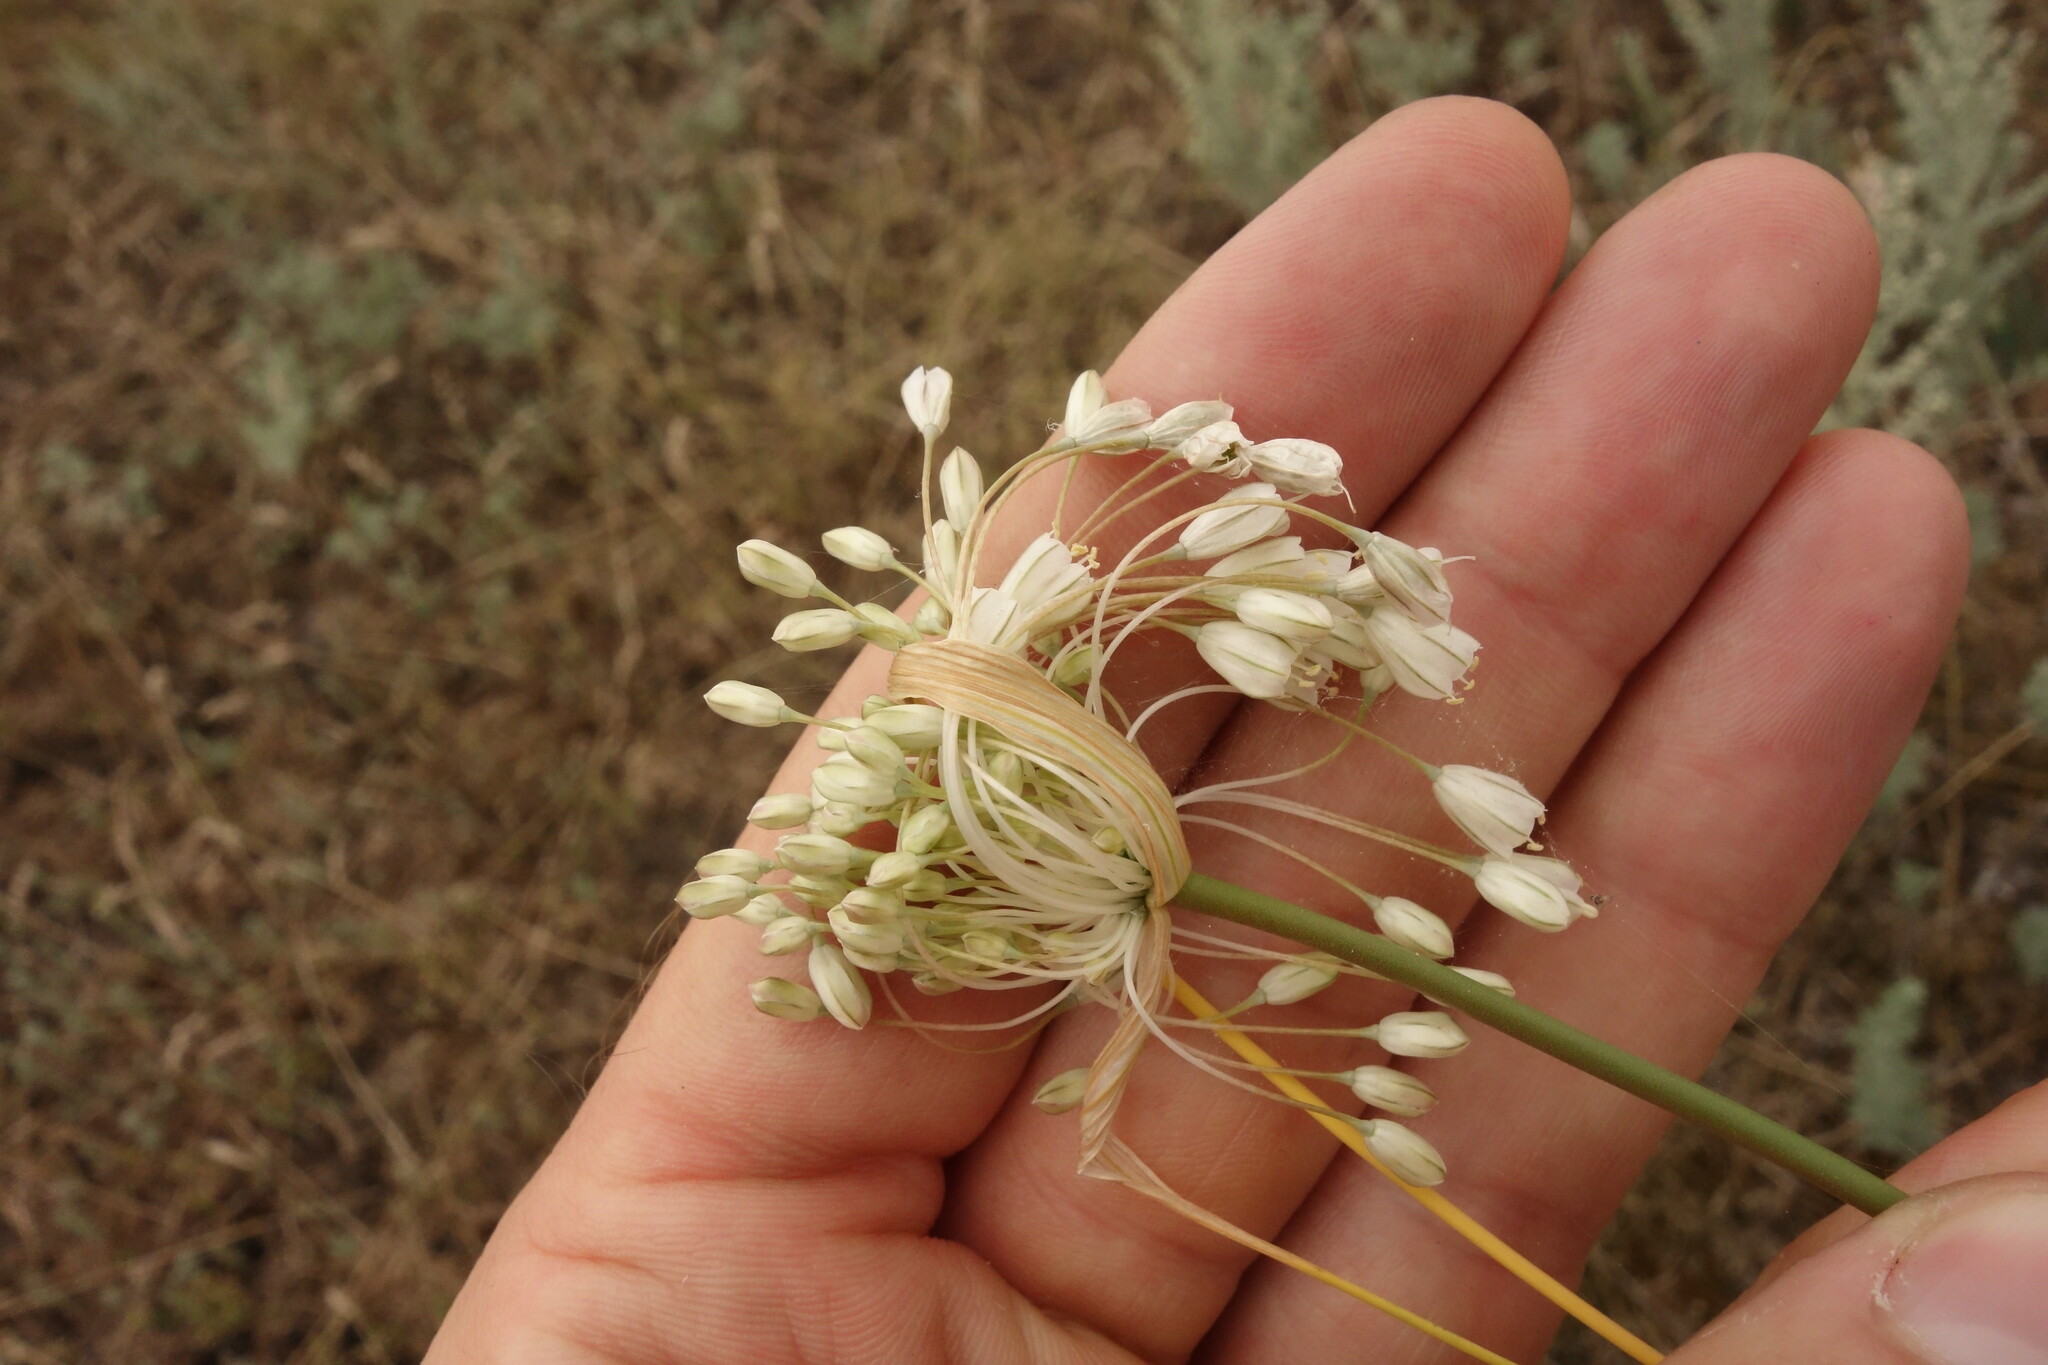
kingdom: Plantae
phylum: Tracheophyta
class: Liliopsida
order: Asparagales
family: Amaryllidaceae
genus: Allium
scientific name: Allium paniculatum
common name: Pale garlic
